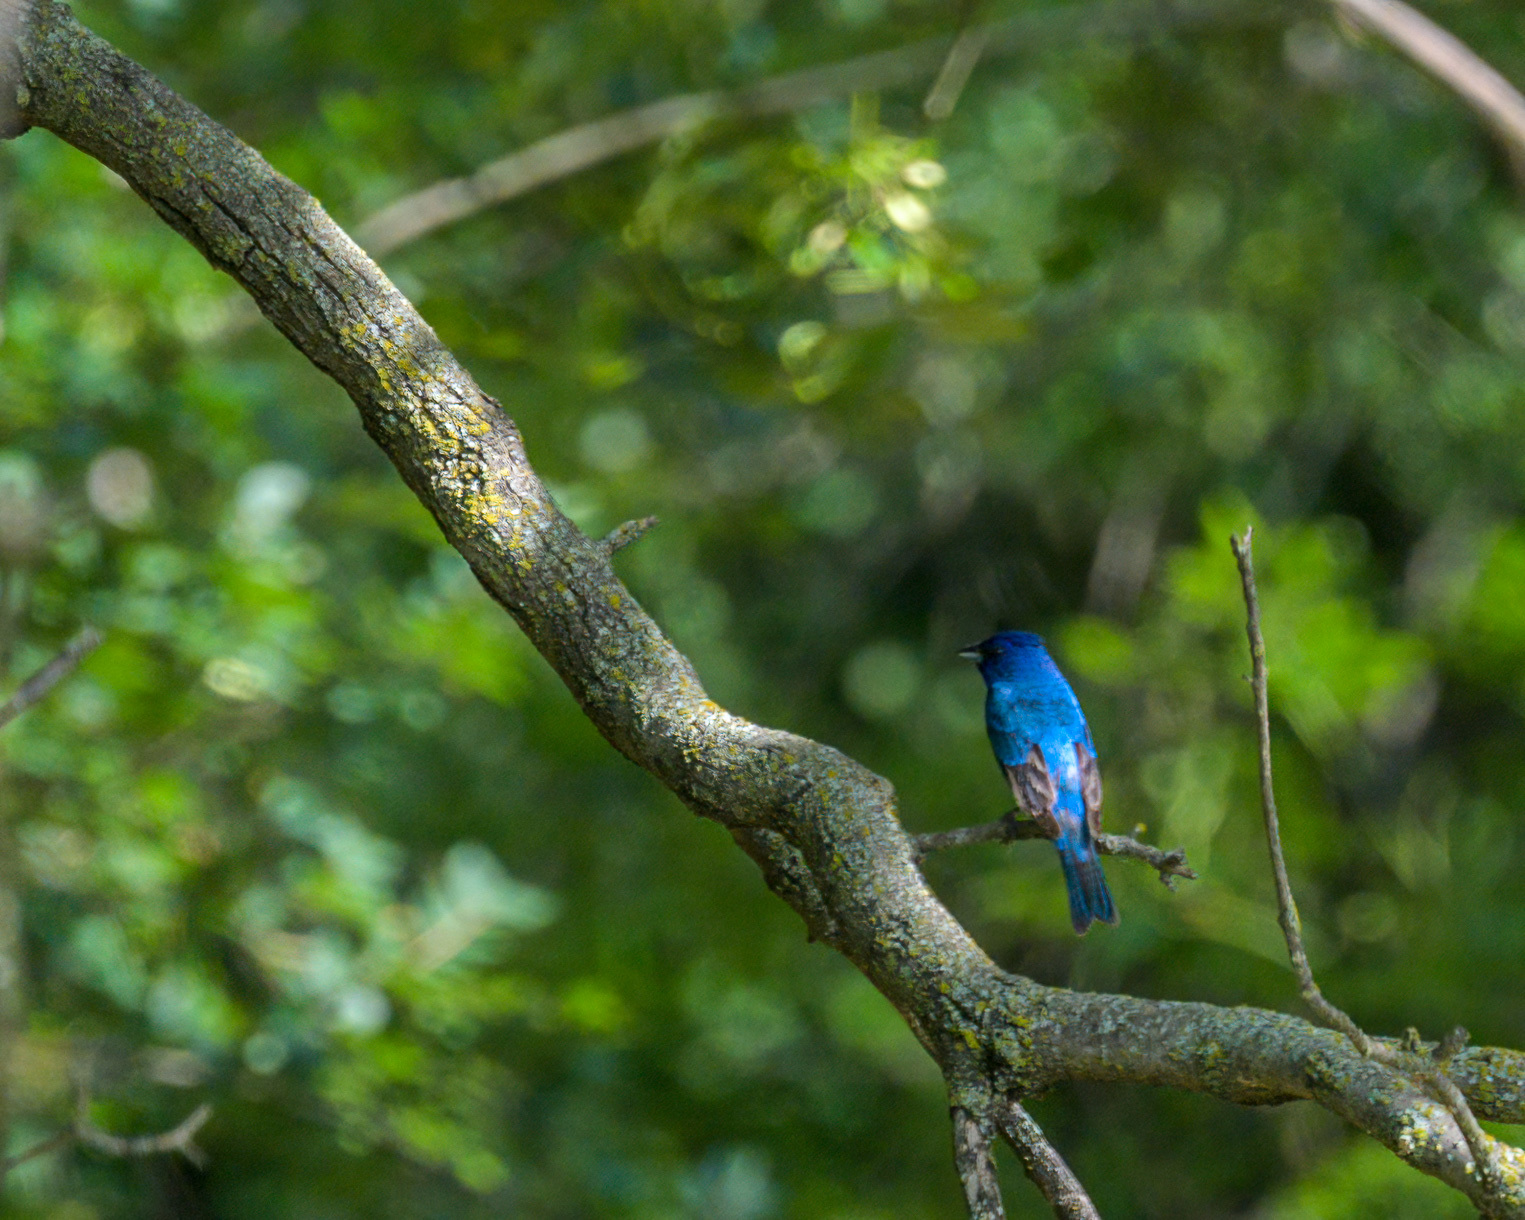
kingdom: Animalia
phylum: Chordata
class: Aves
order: Passeriformes
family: Cardinalidae
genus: Passerina
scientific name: Passerina cyanea
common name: Indigo bunting
